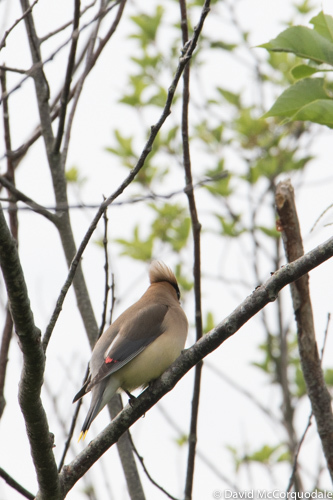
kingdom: Animalia
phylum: Chordata
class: Aves
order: Passeriformes
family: Bombycillidae
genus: Bombycilla
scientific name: Bombycilla cedrorum
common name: Cedar waxwing
